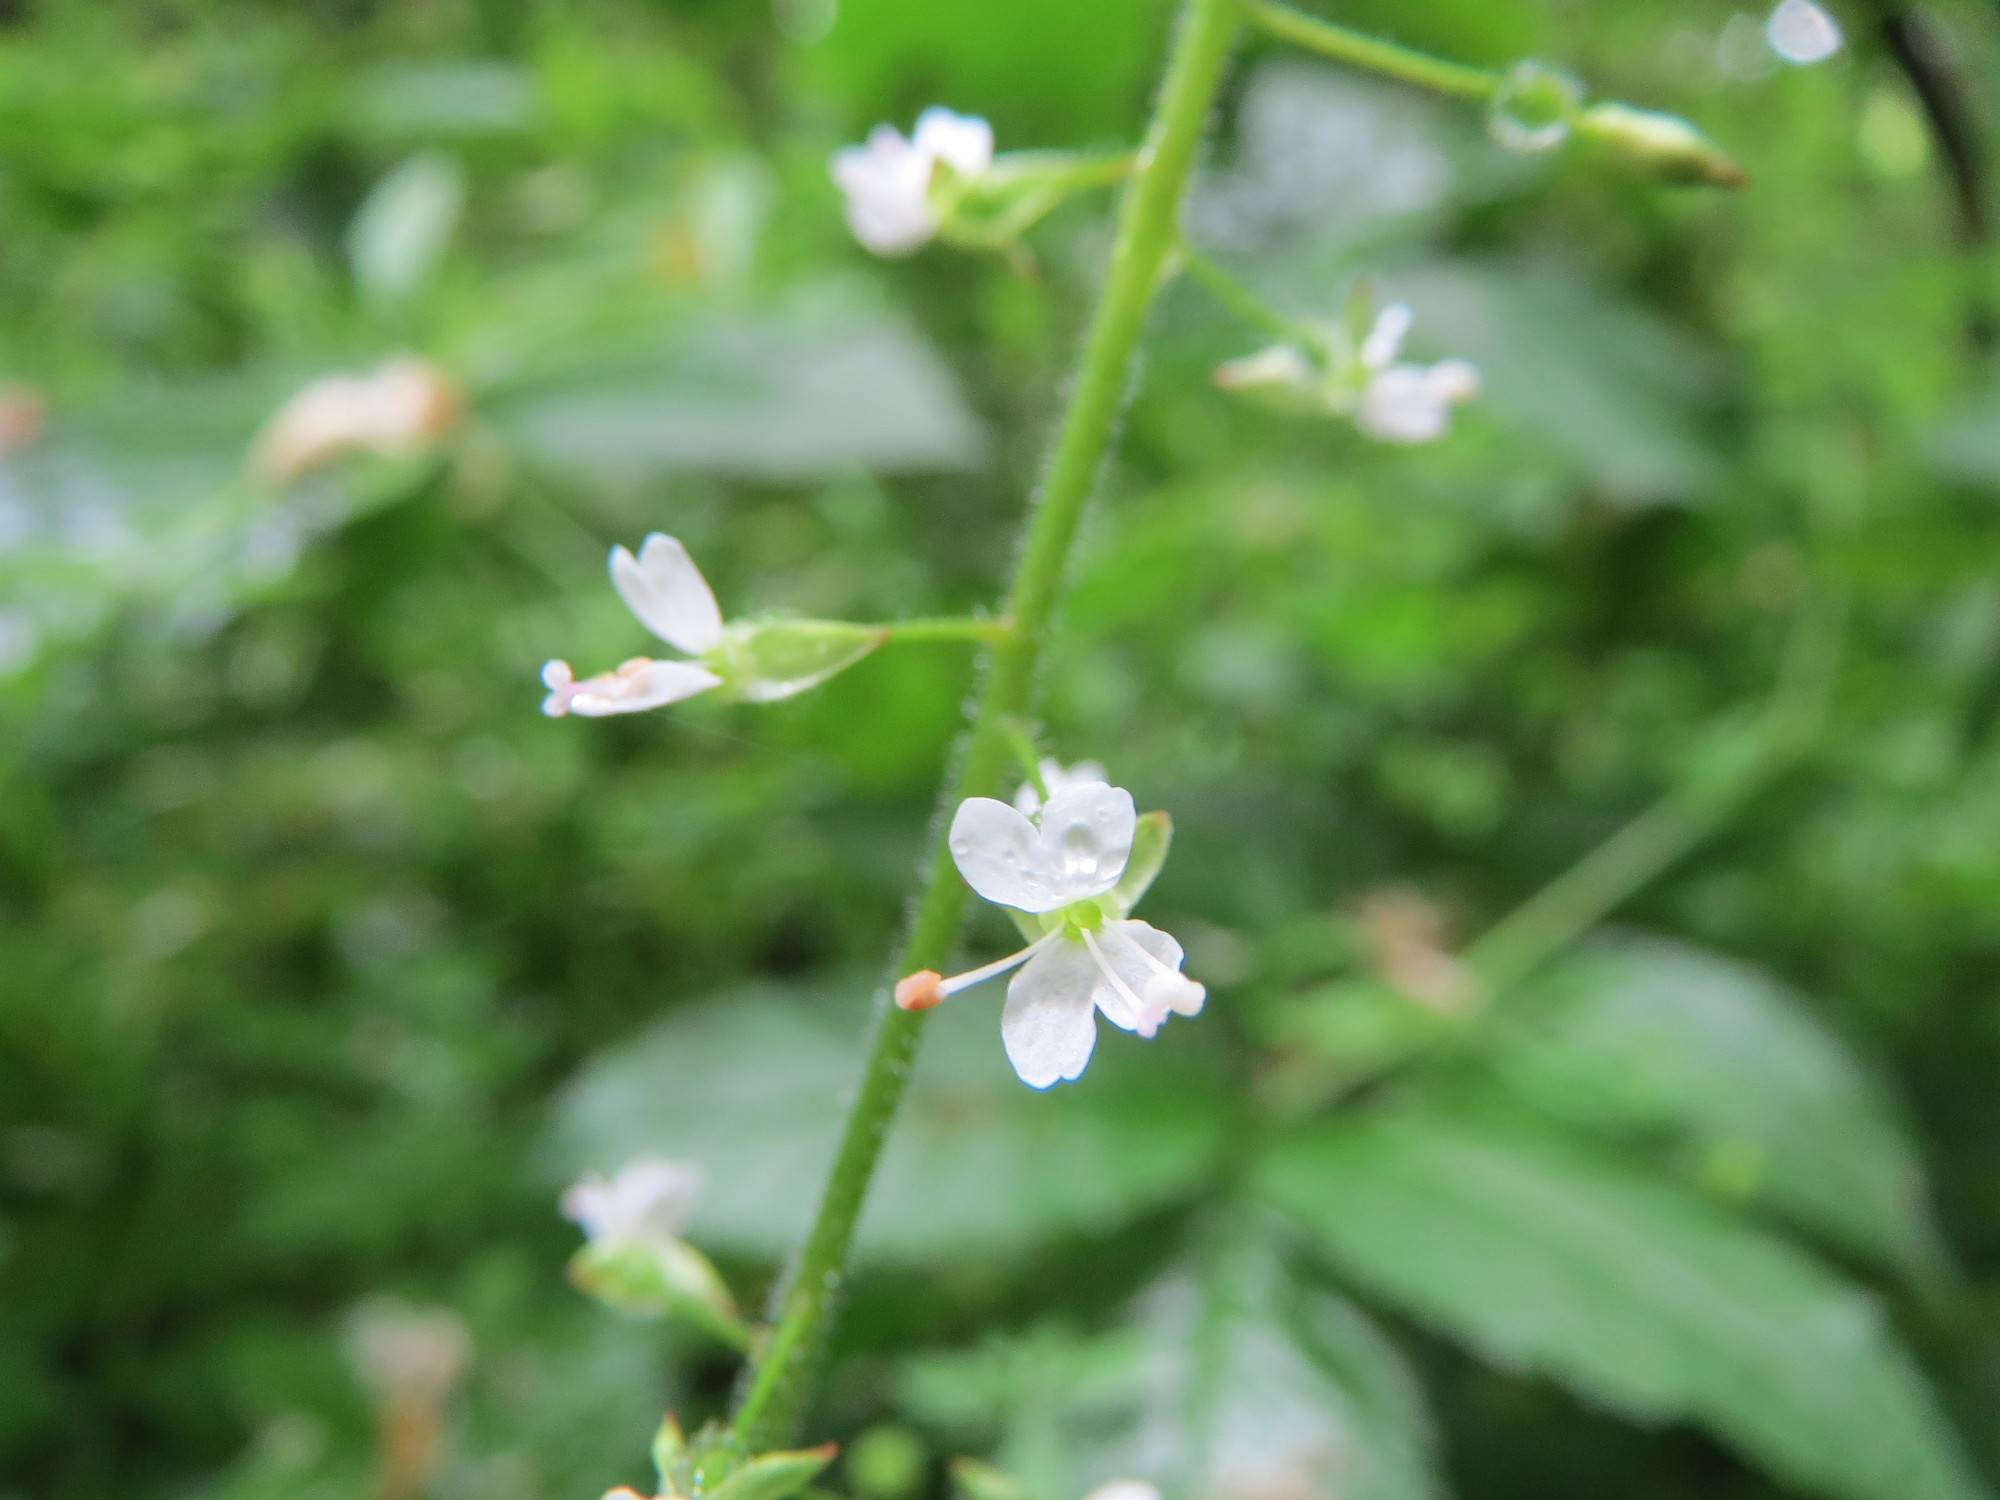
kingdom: Plantae
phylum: Tracheophyta
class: Magnoliopsida
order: Myrtales
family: Onagraceae
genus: Circaea
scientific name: Circaea lutetiana
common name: Enchanter's-nightshade
